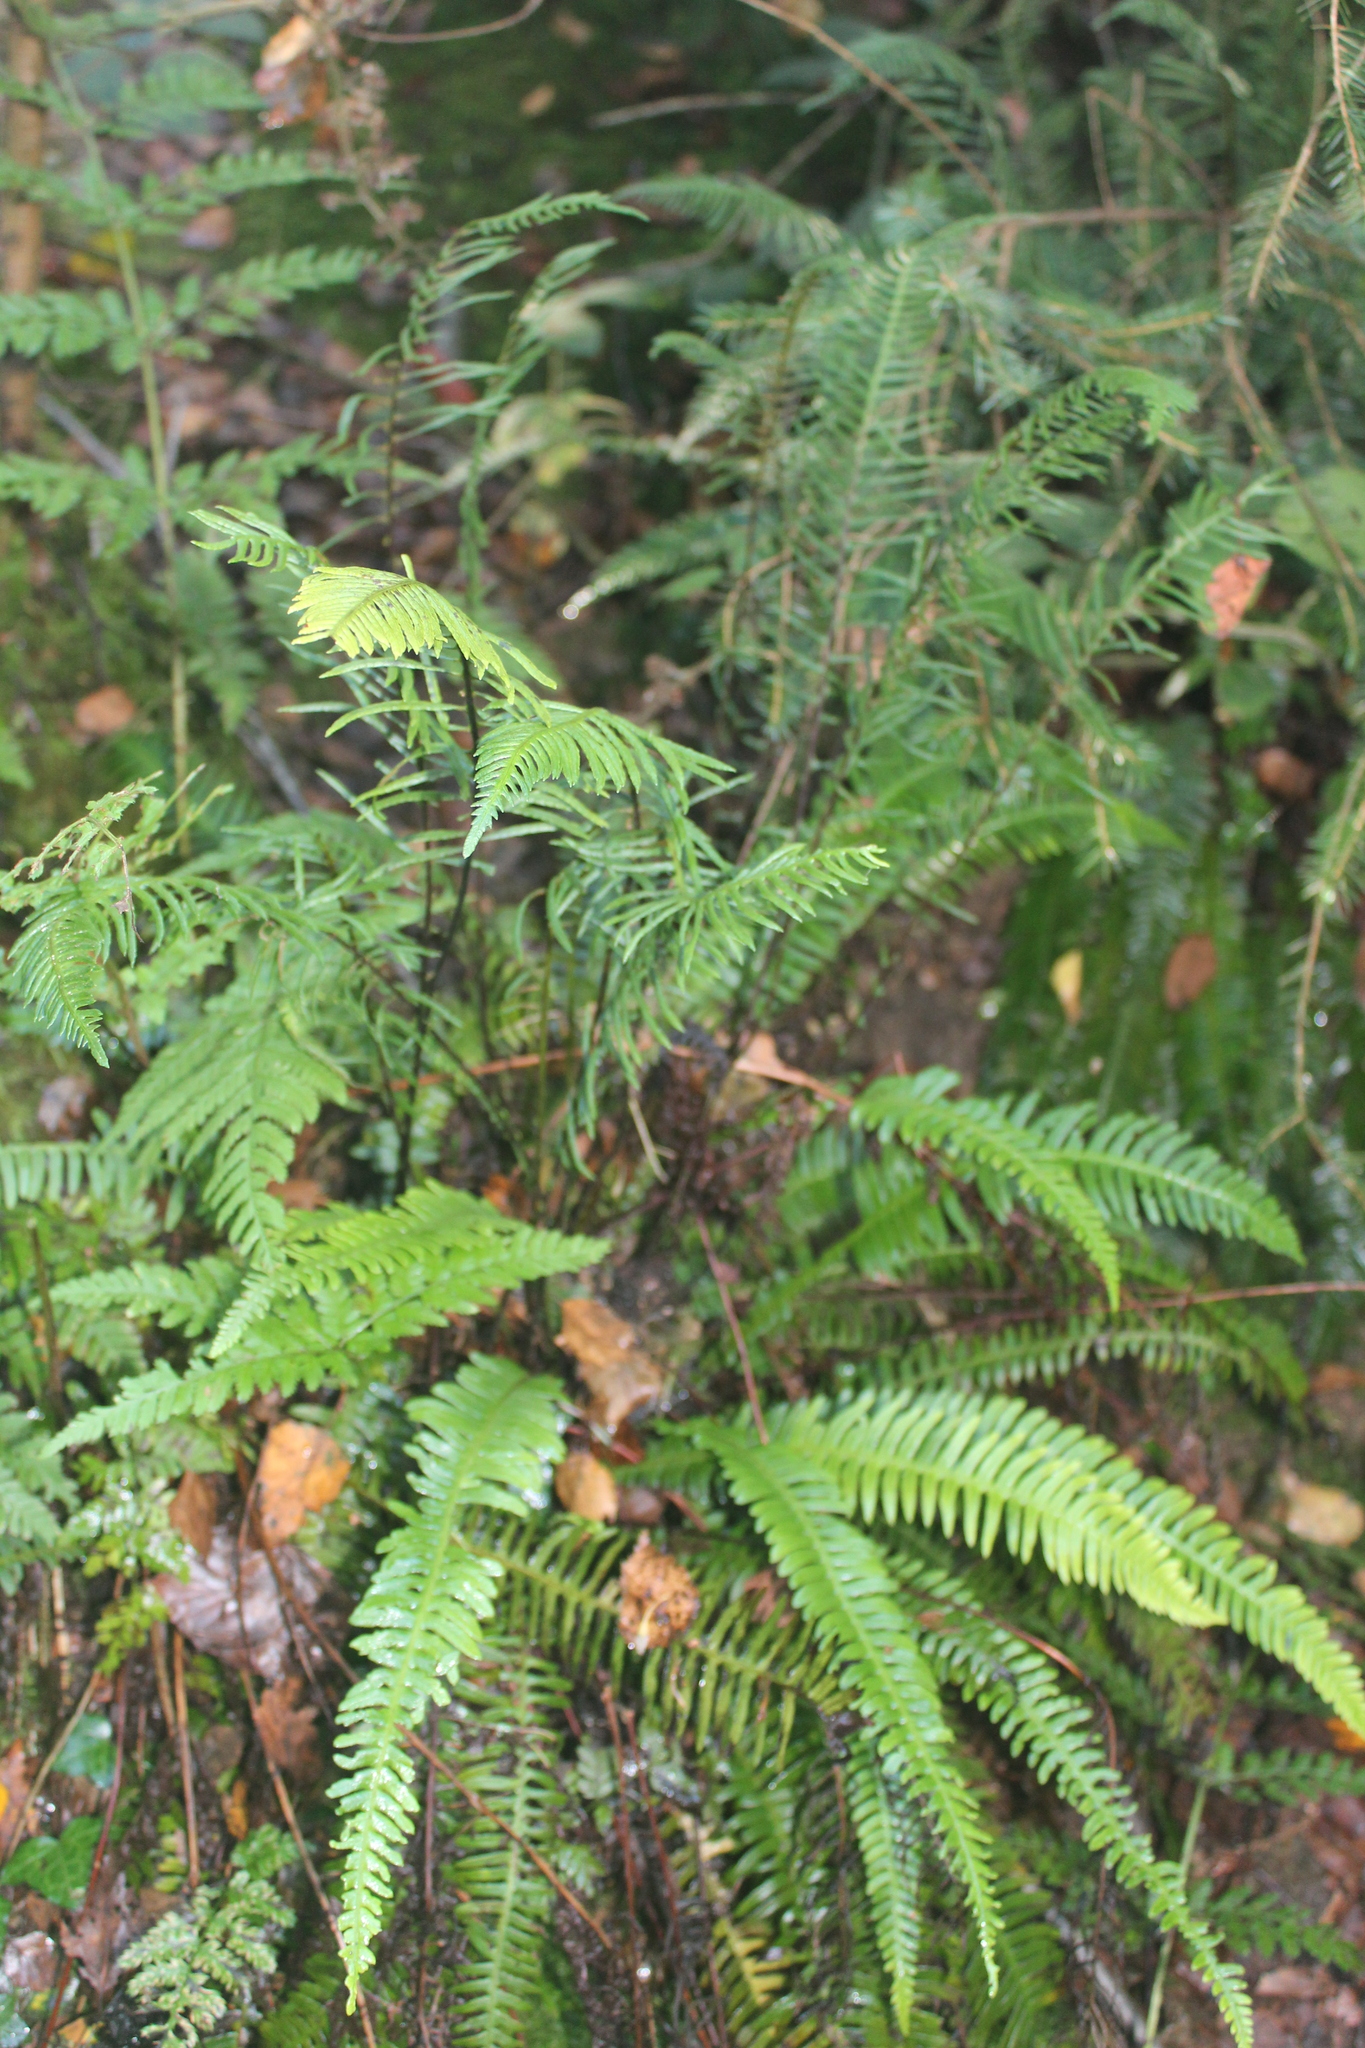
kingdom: Plantae
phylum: Tracheophyta
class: Polypodiopsida
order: Polypodiales
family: Blechnaceae
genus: Struthiopteris
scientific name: Struthiopteris spicant
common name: Deer fern
